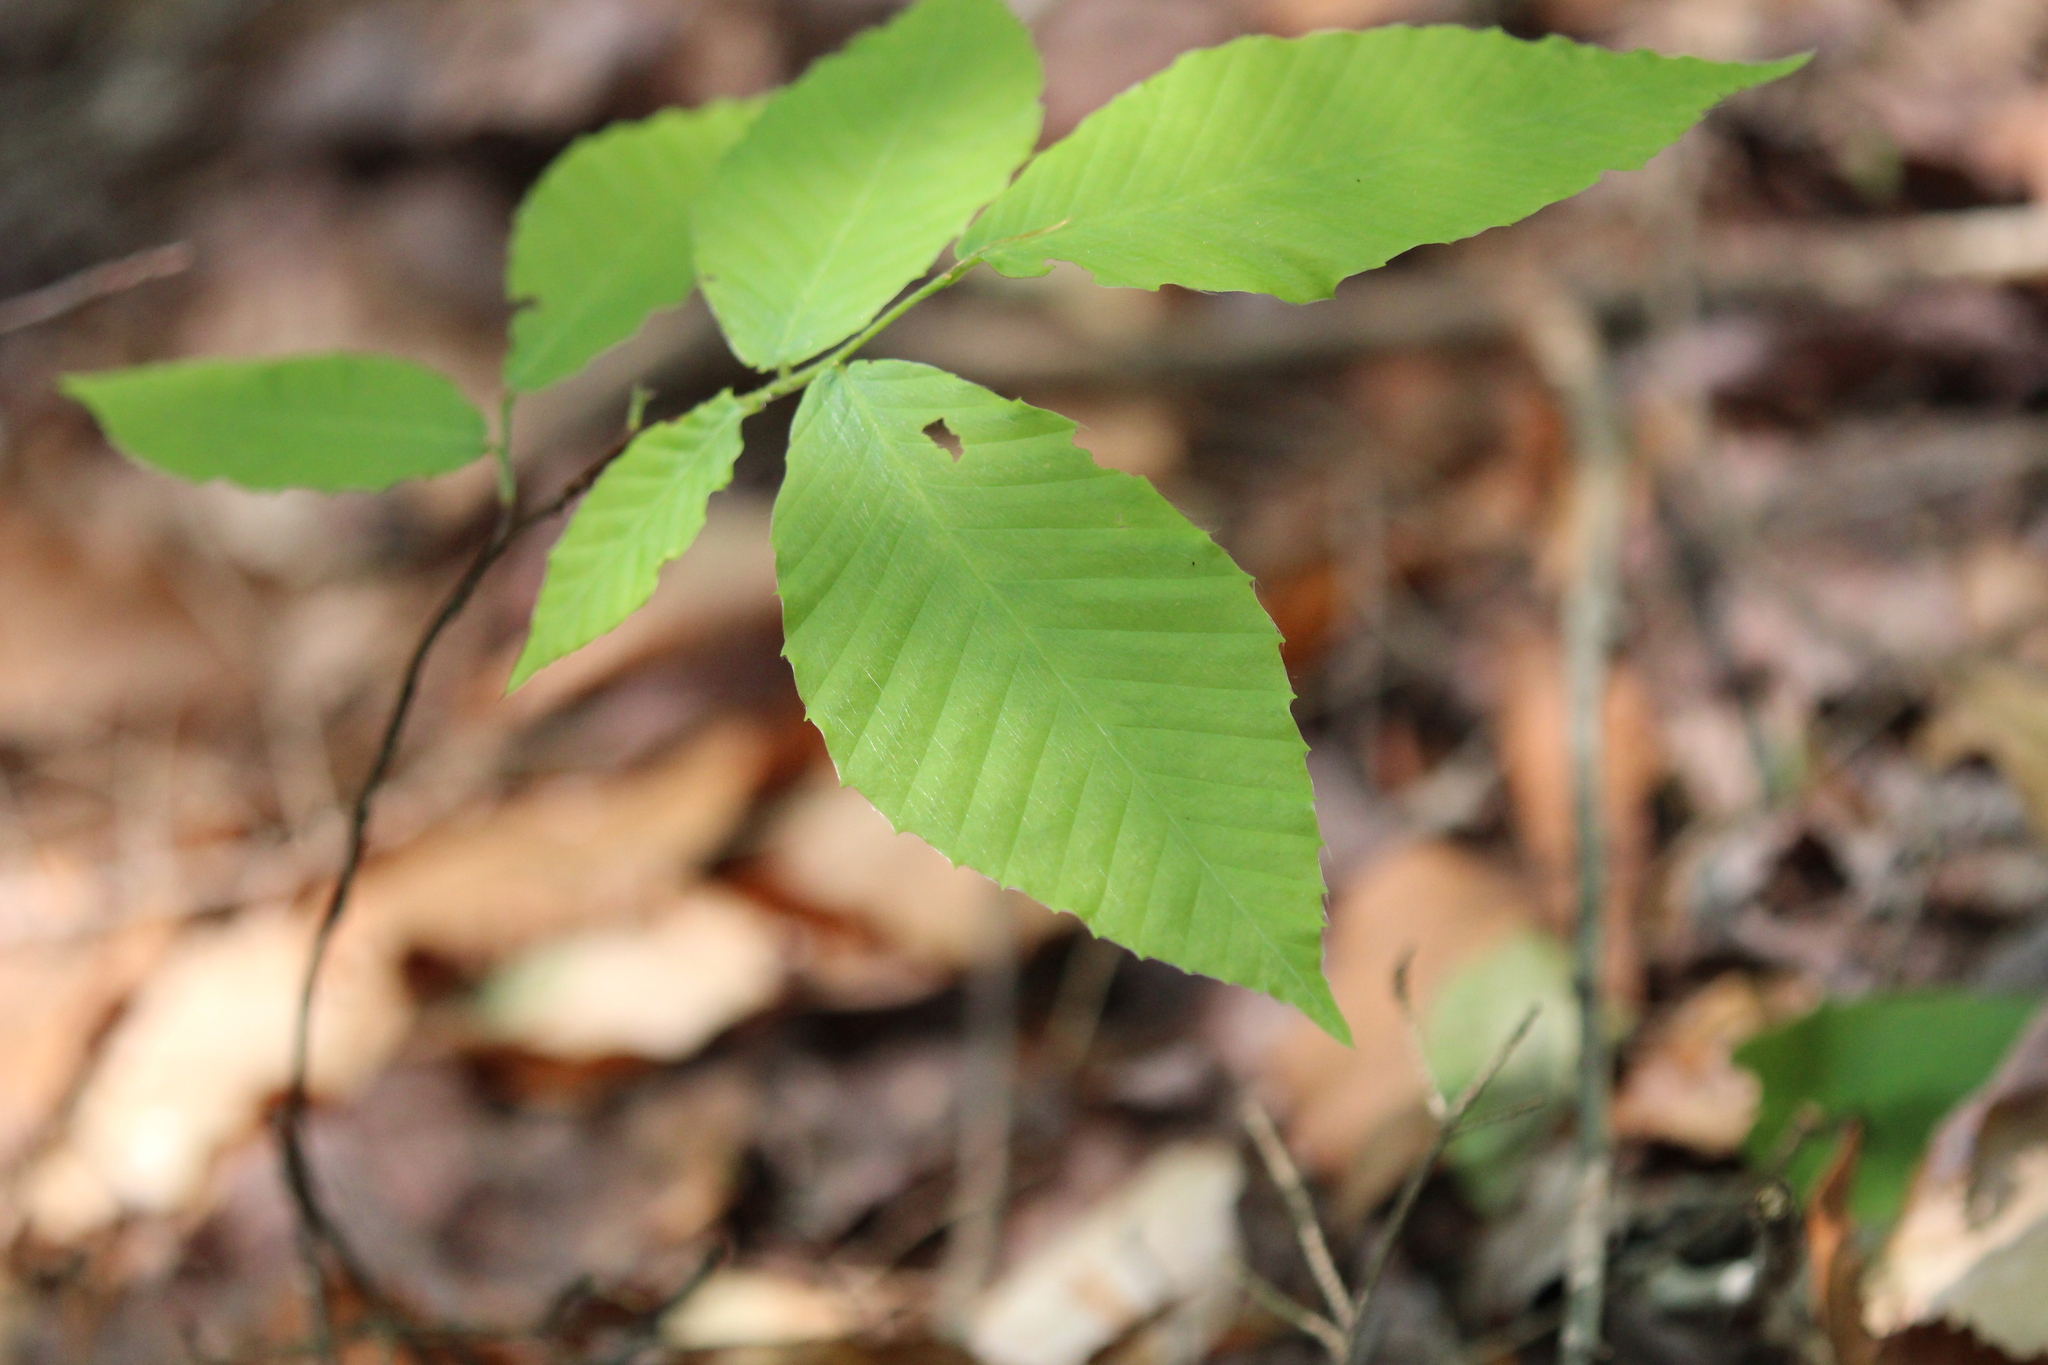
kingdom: Plantae
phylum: Tracheophyta
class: Magnoliopsida
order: Fagales
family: Fagaceae
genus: Fagus
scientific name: Fagus grandifolia
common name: American beech
